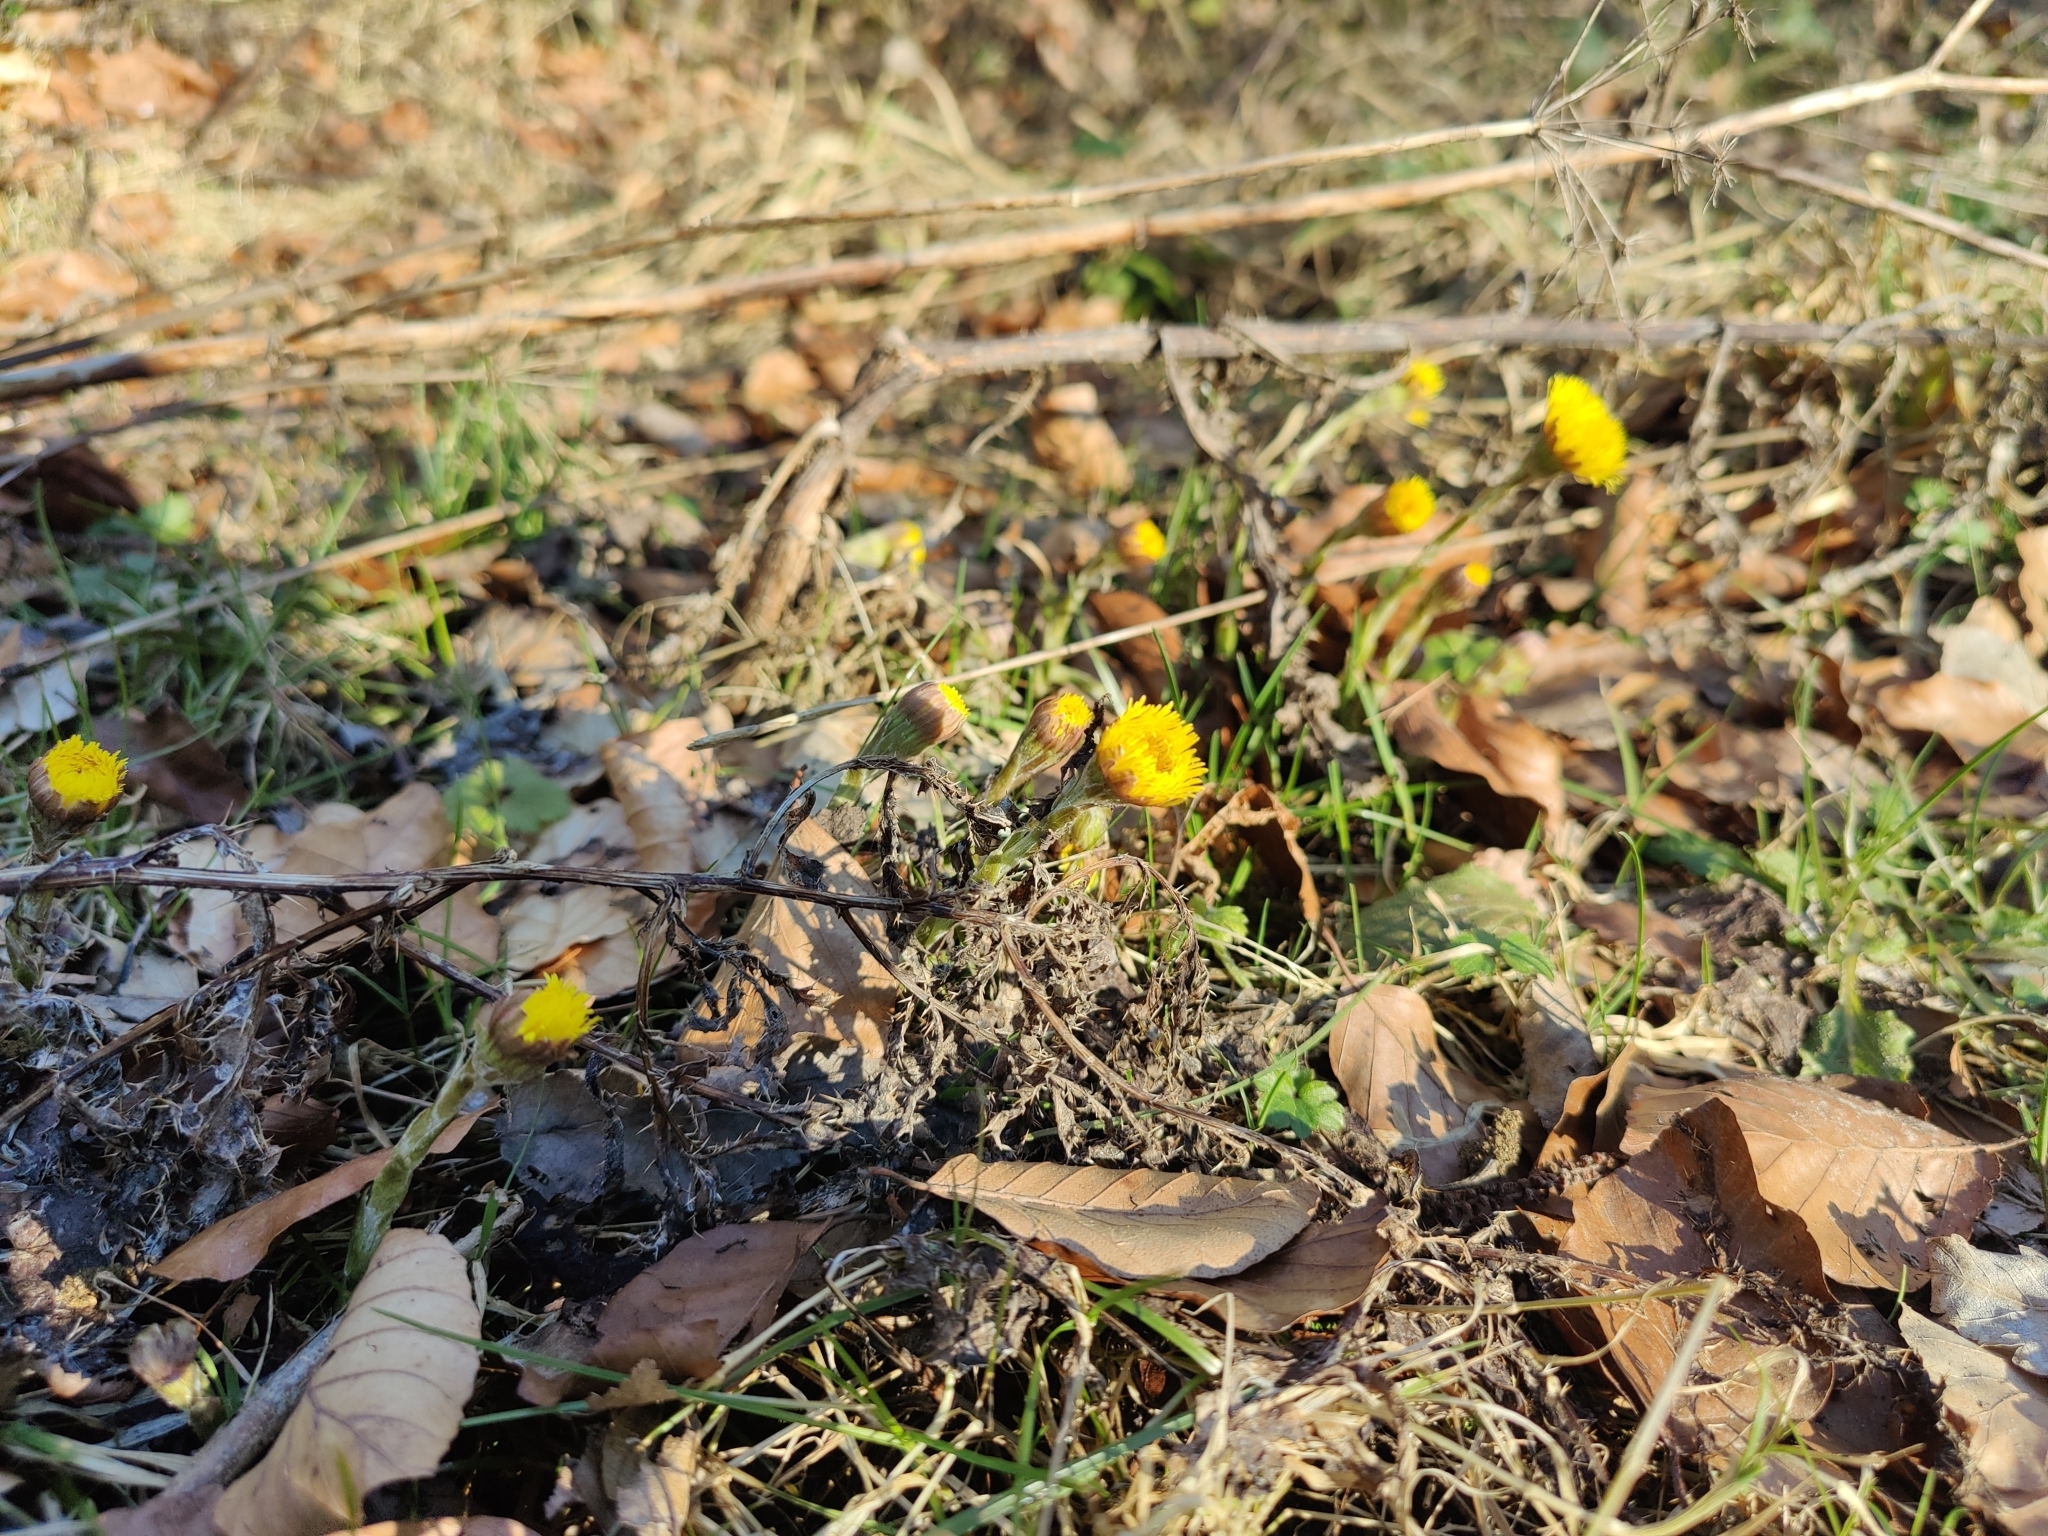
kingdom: Plantae
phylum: Tracheophyta
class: Magnoliopsida
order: Asterales
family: Asteraceae
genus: Tussilago
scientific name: Tussilago farfara
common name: Coltsfoot
